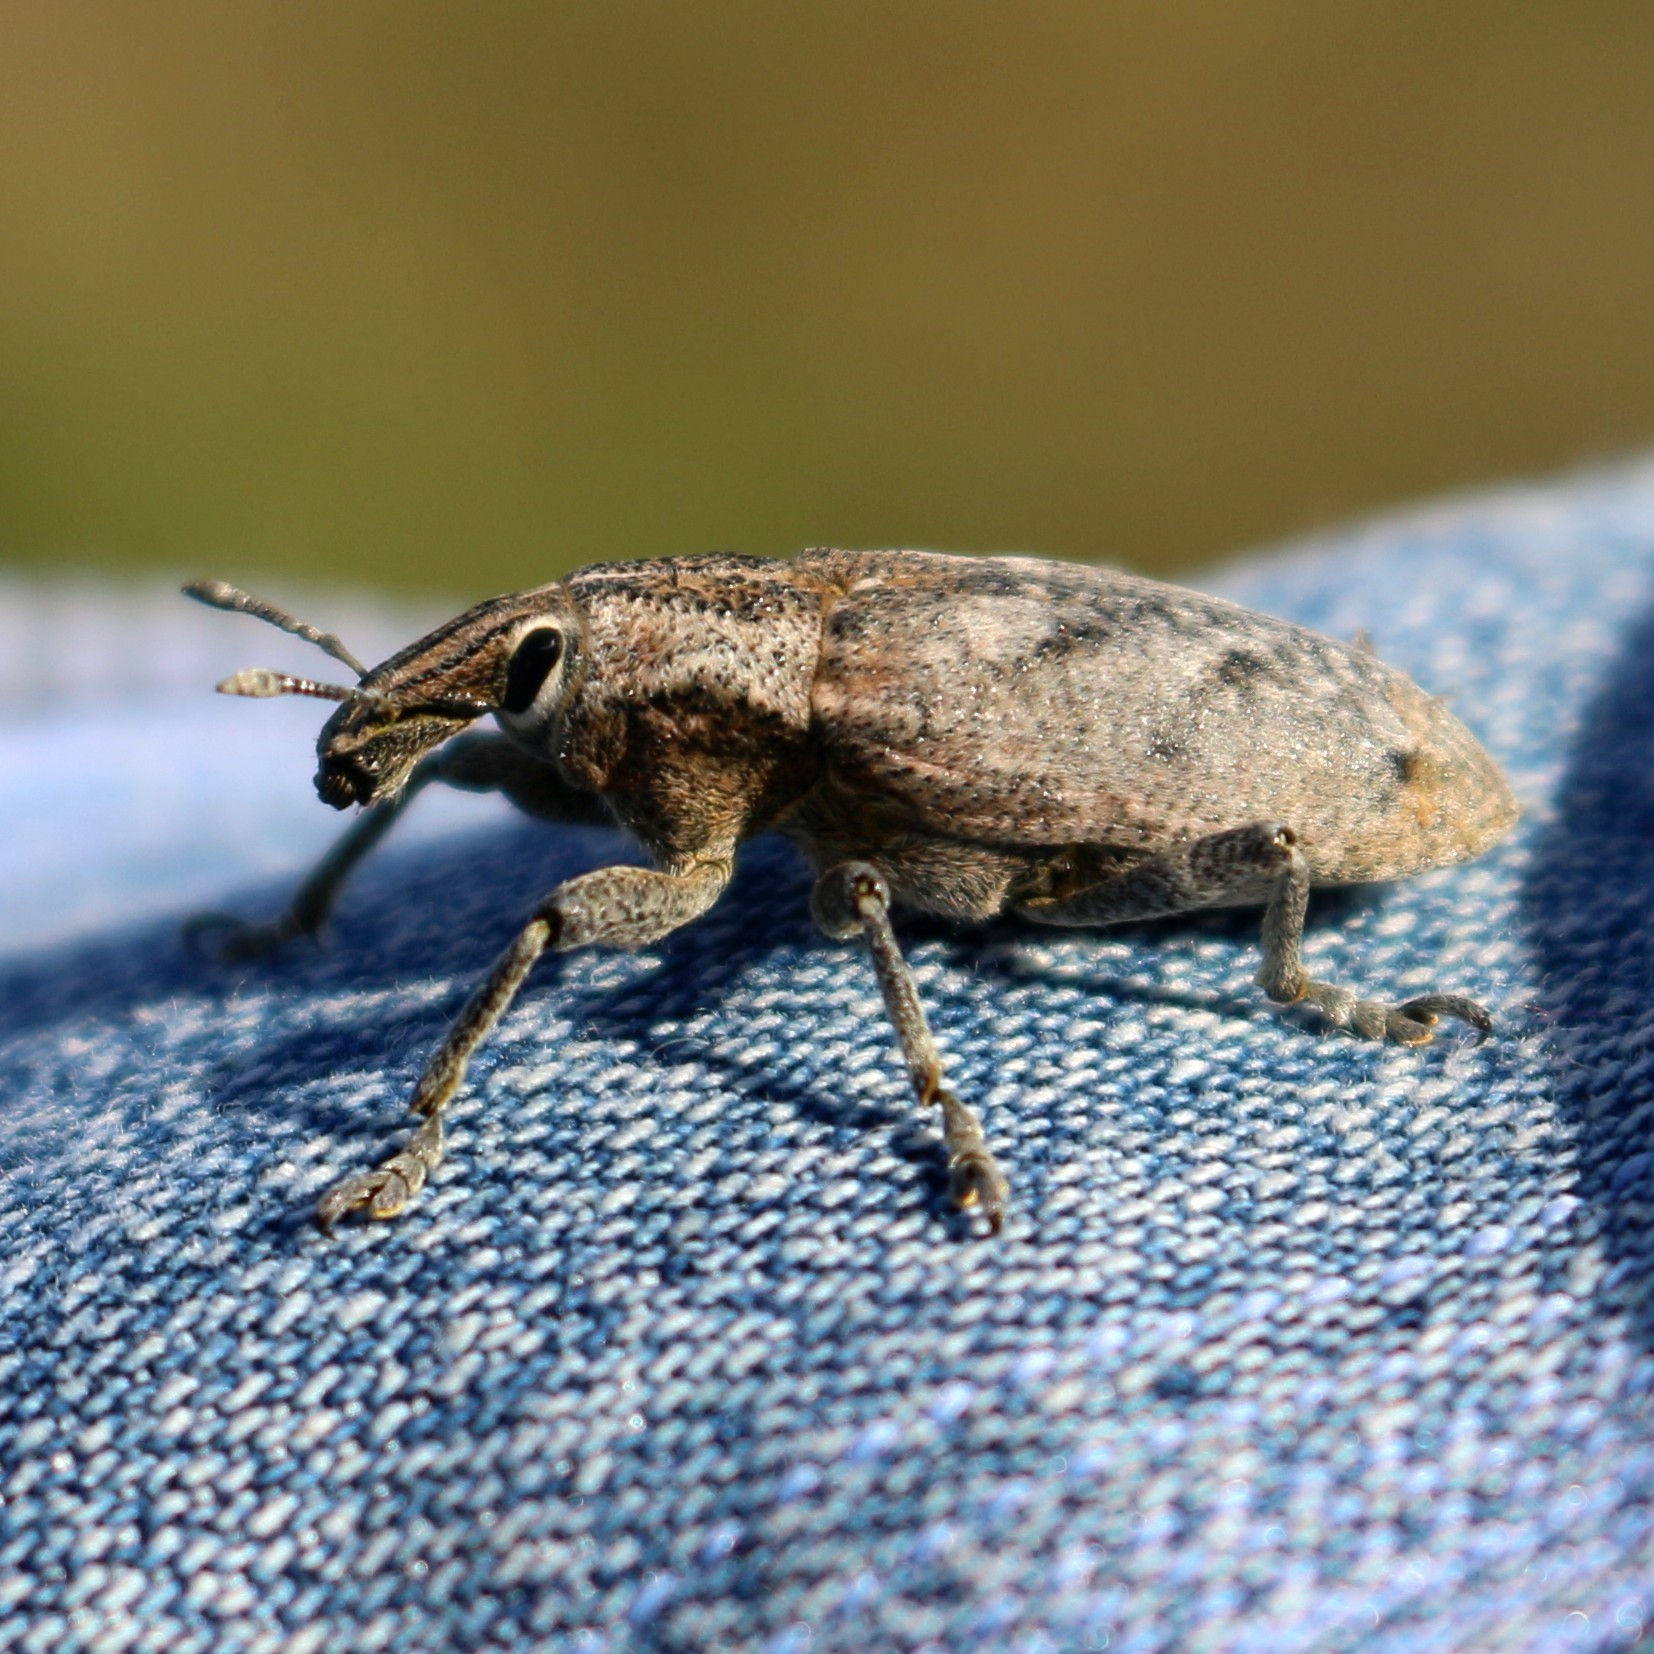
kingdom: Animalia
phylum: Arthropoda
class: Insecta
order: Coleoptera
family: Curculionidae
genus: Cleonis
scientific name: Cleonis pigra
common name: Large thistle weevil
